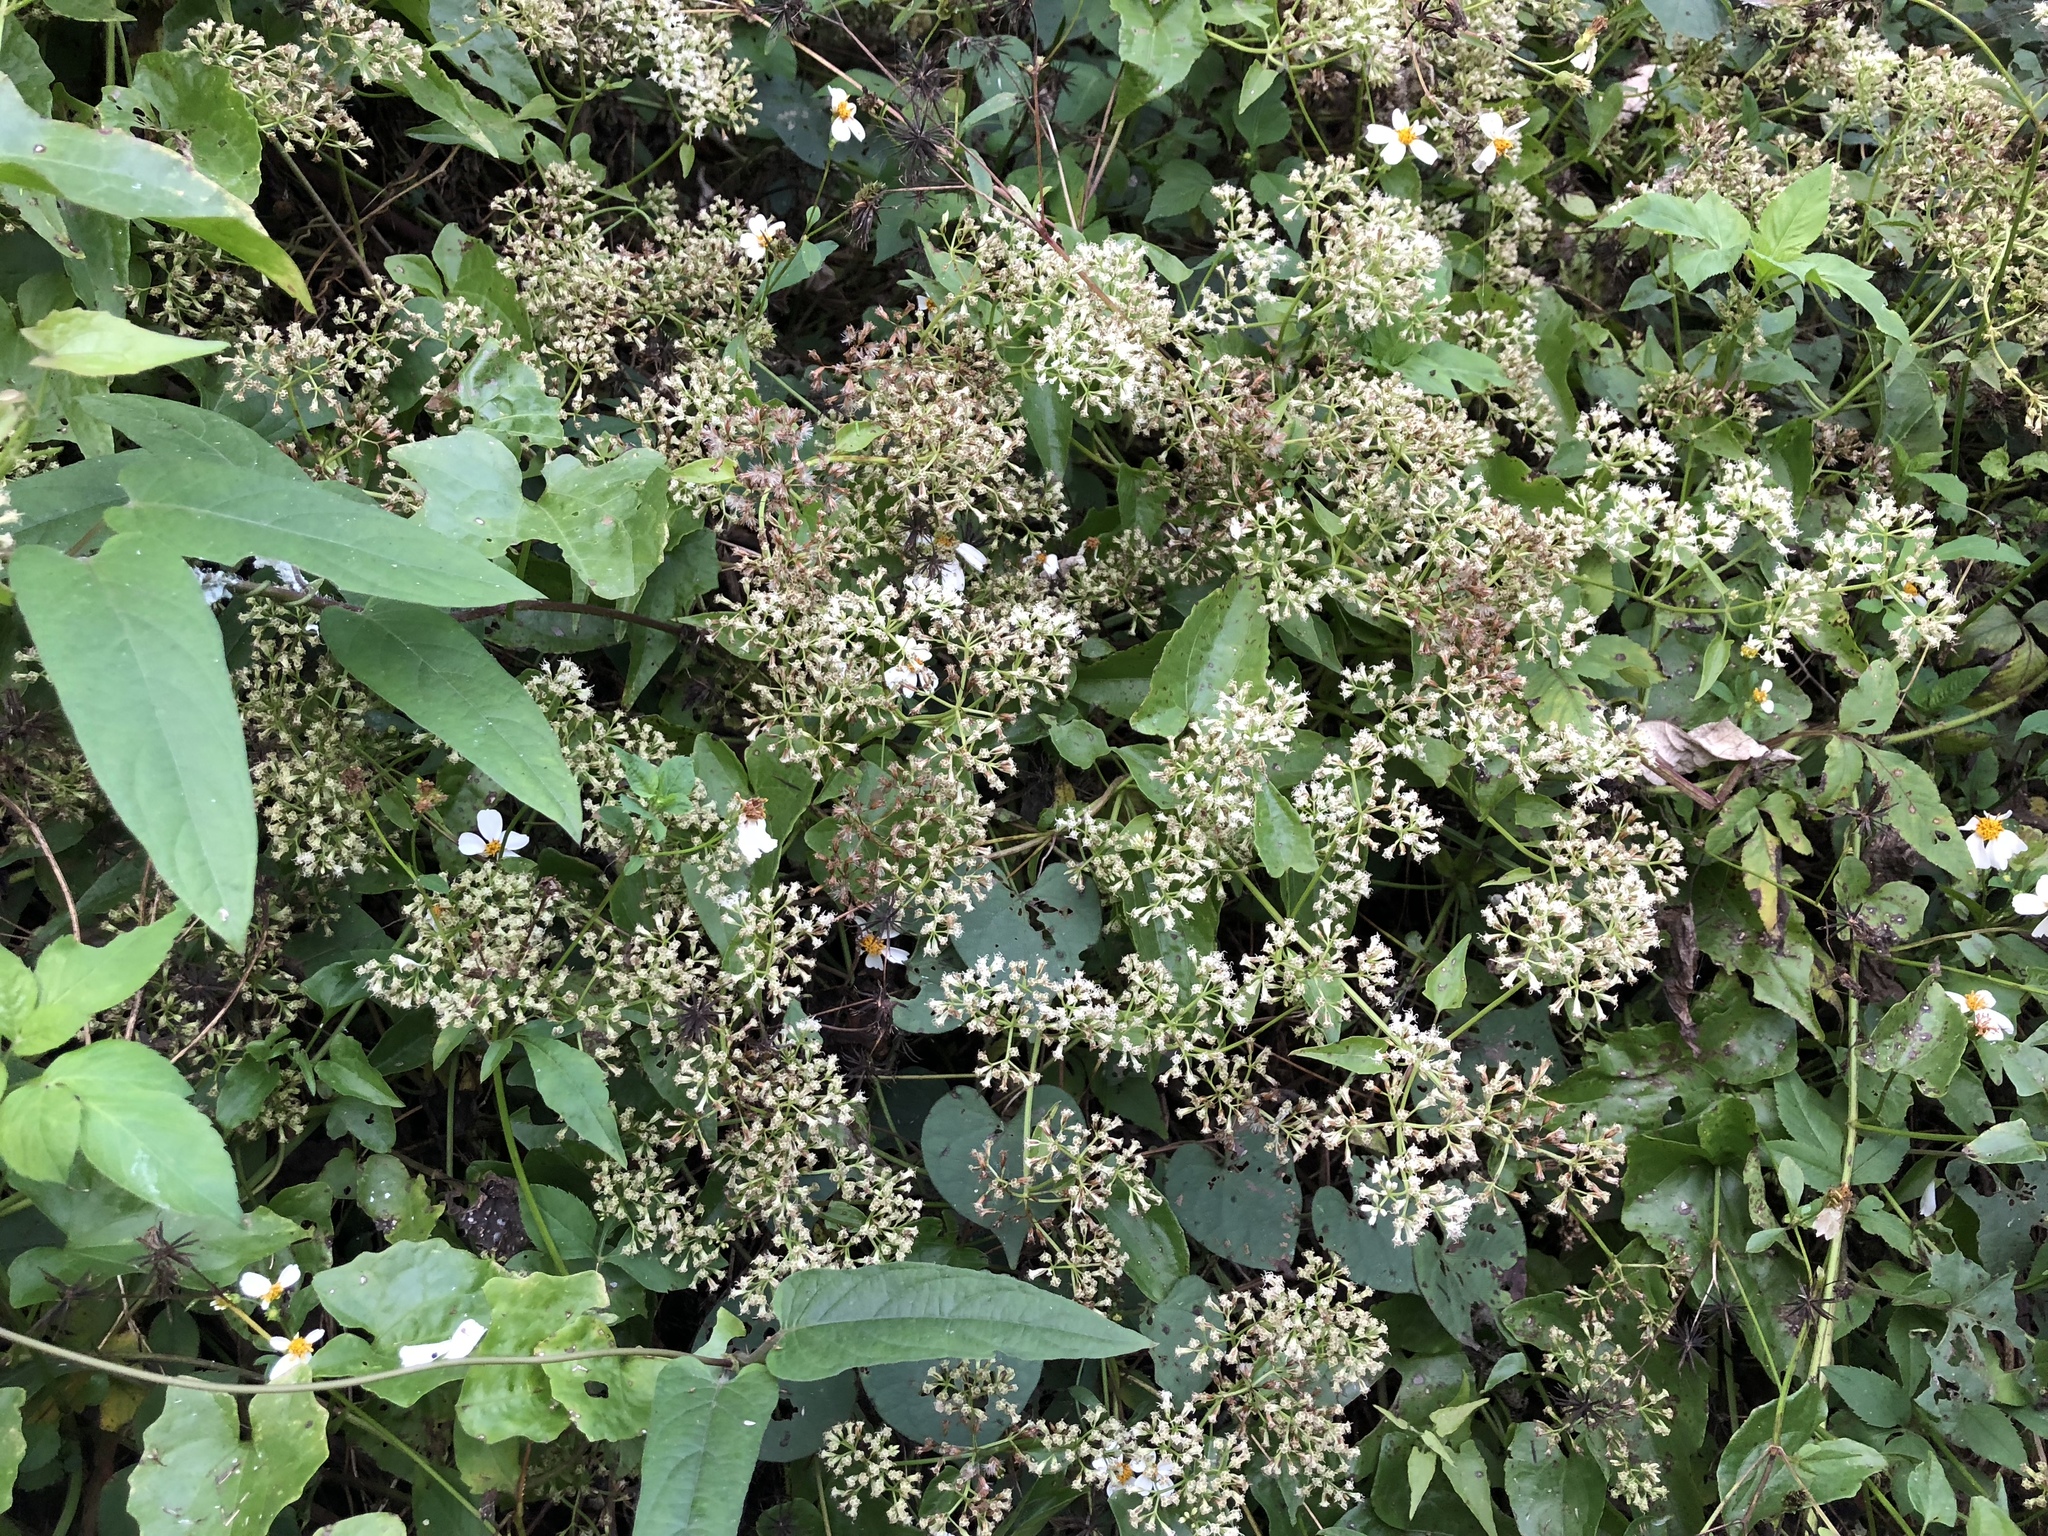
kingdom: Plantae
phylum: Tracheophyta
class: Magnoliopsida
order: Asterales
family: Asteraceae
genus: Mikania
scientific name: Mikania micrantha
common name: Mile-a-minute
